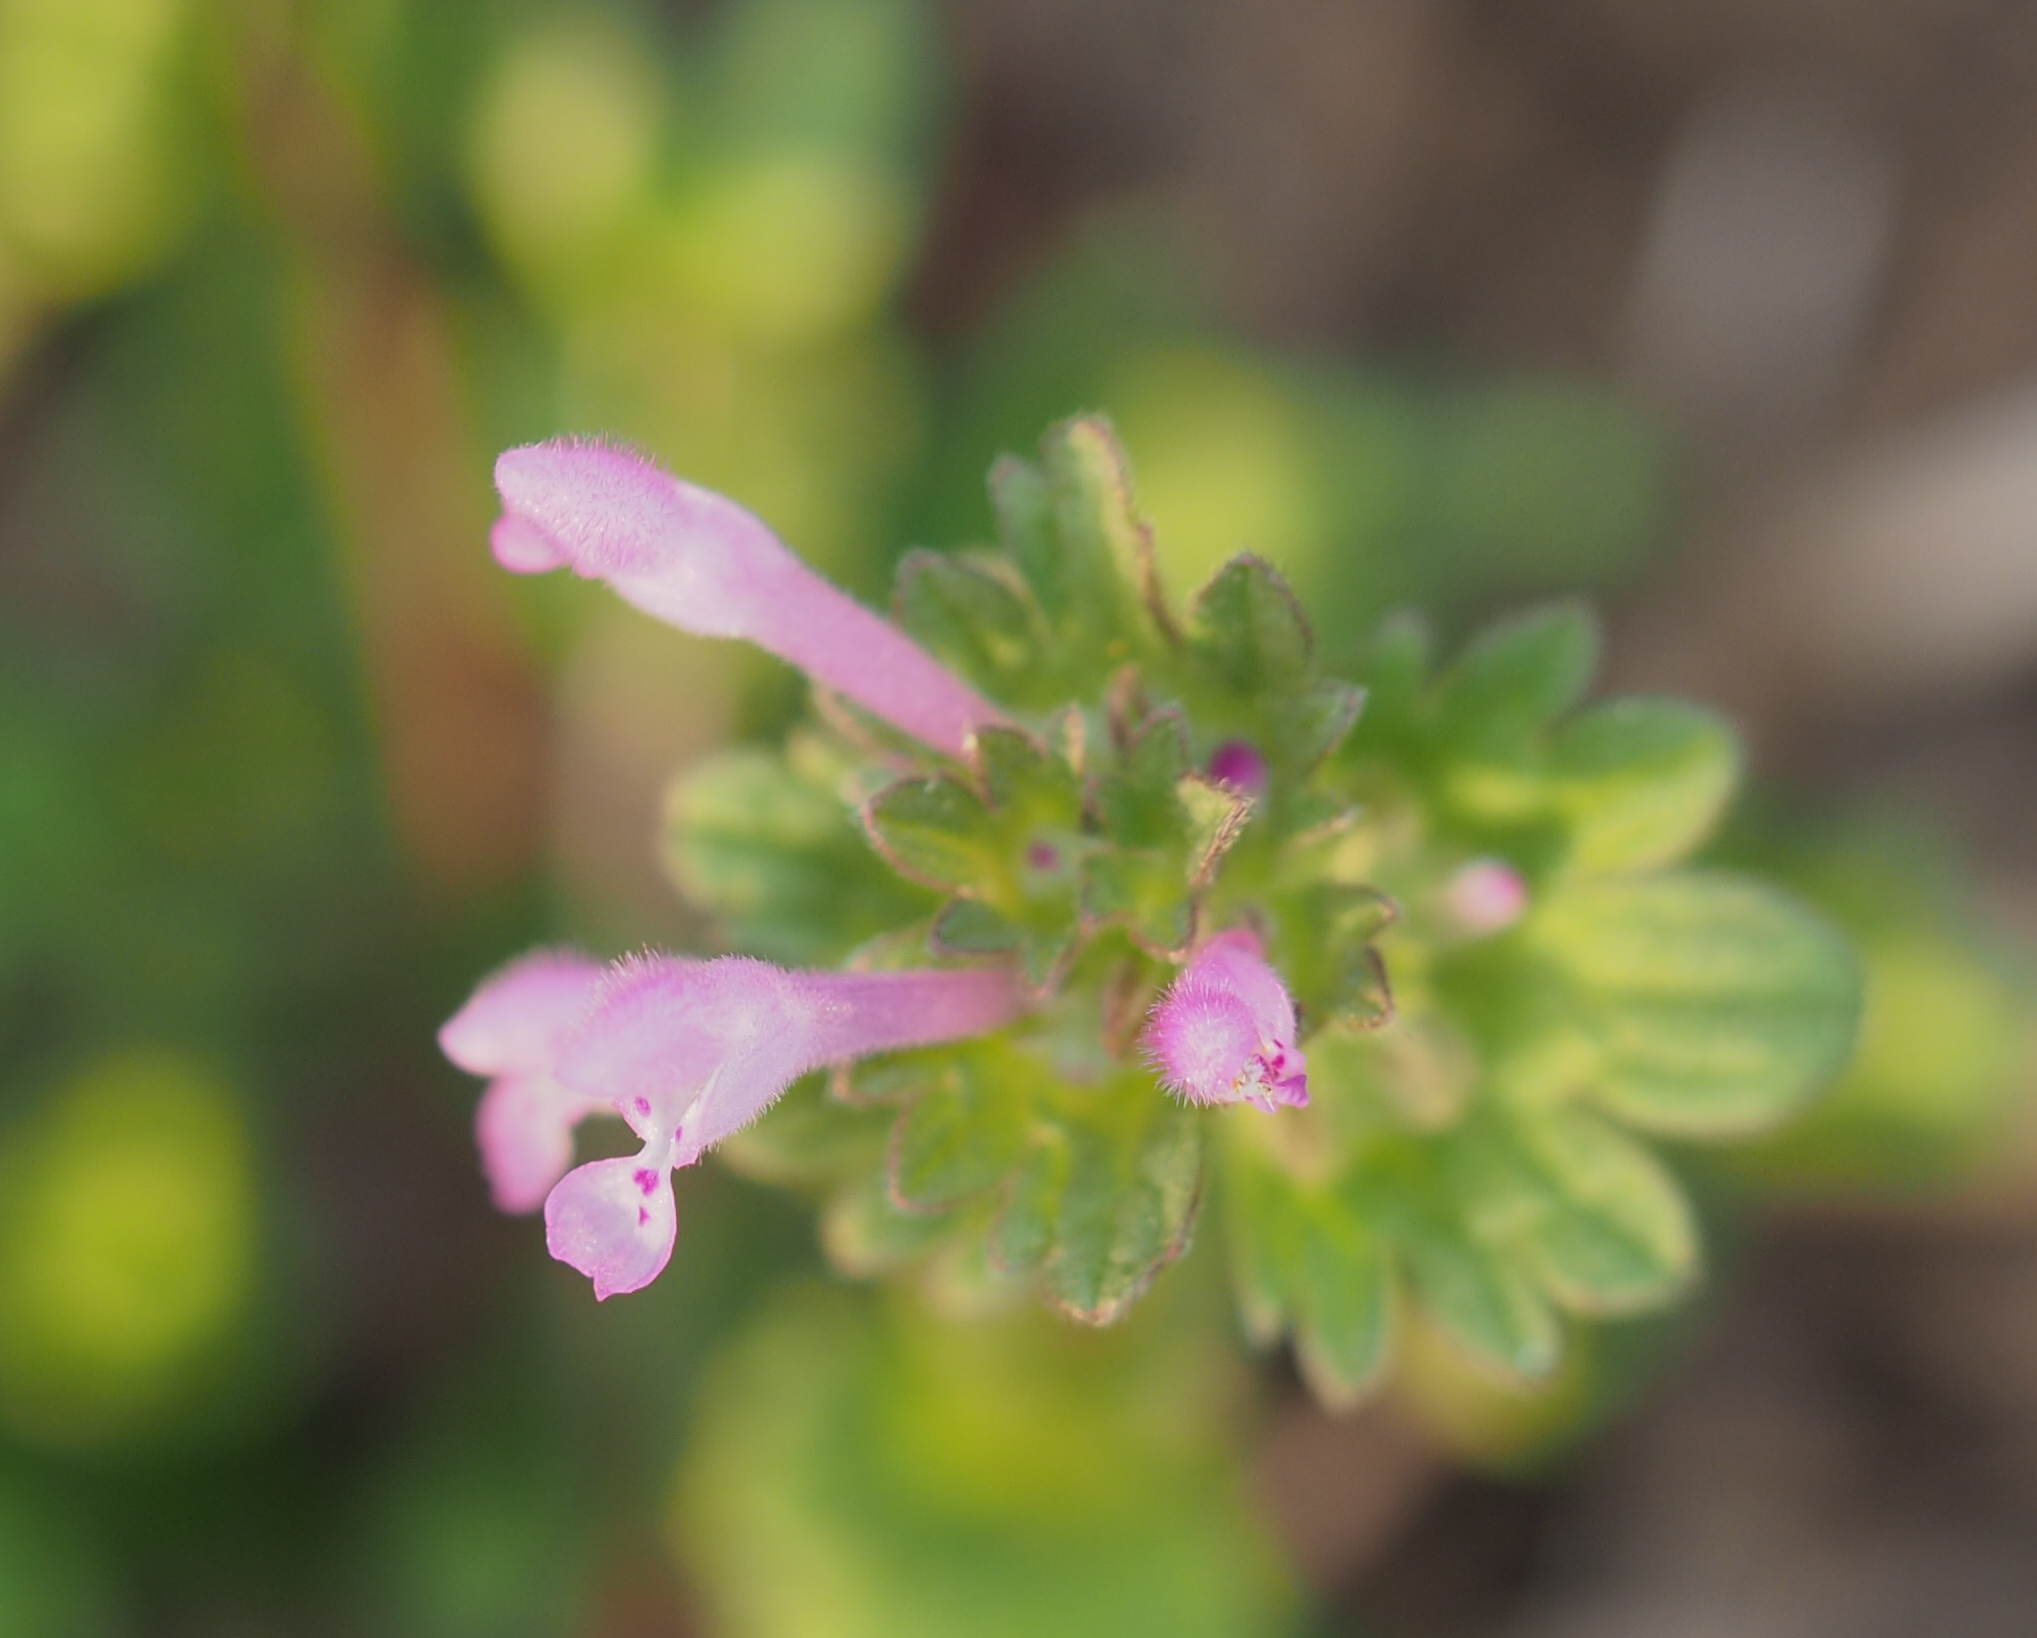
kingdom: Plantae
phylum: Tracheophyta
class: Magnoliopsida
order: Lamiales
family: Lamiaceae
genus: Lamium
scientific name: Lamium amplexicaule
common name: Henbit dead-nettle
